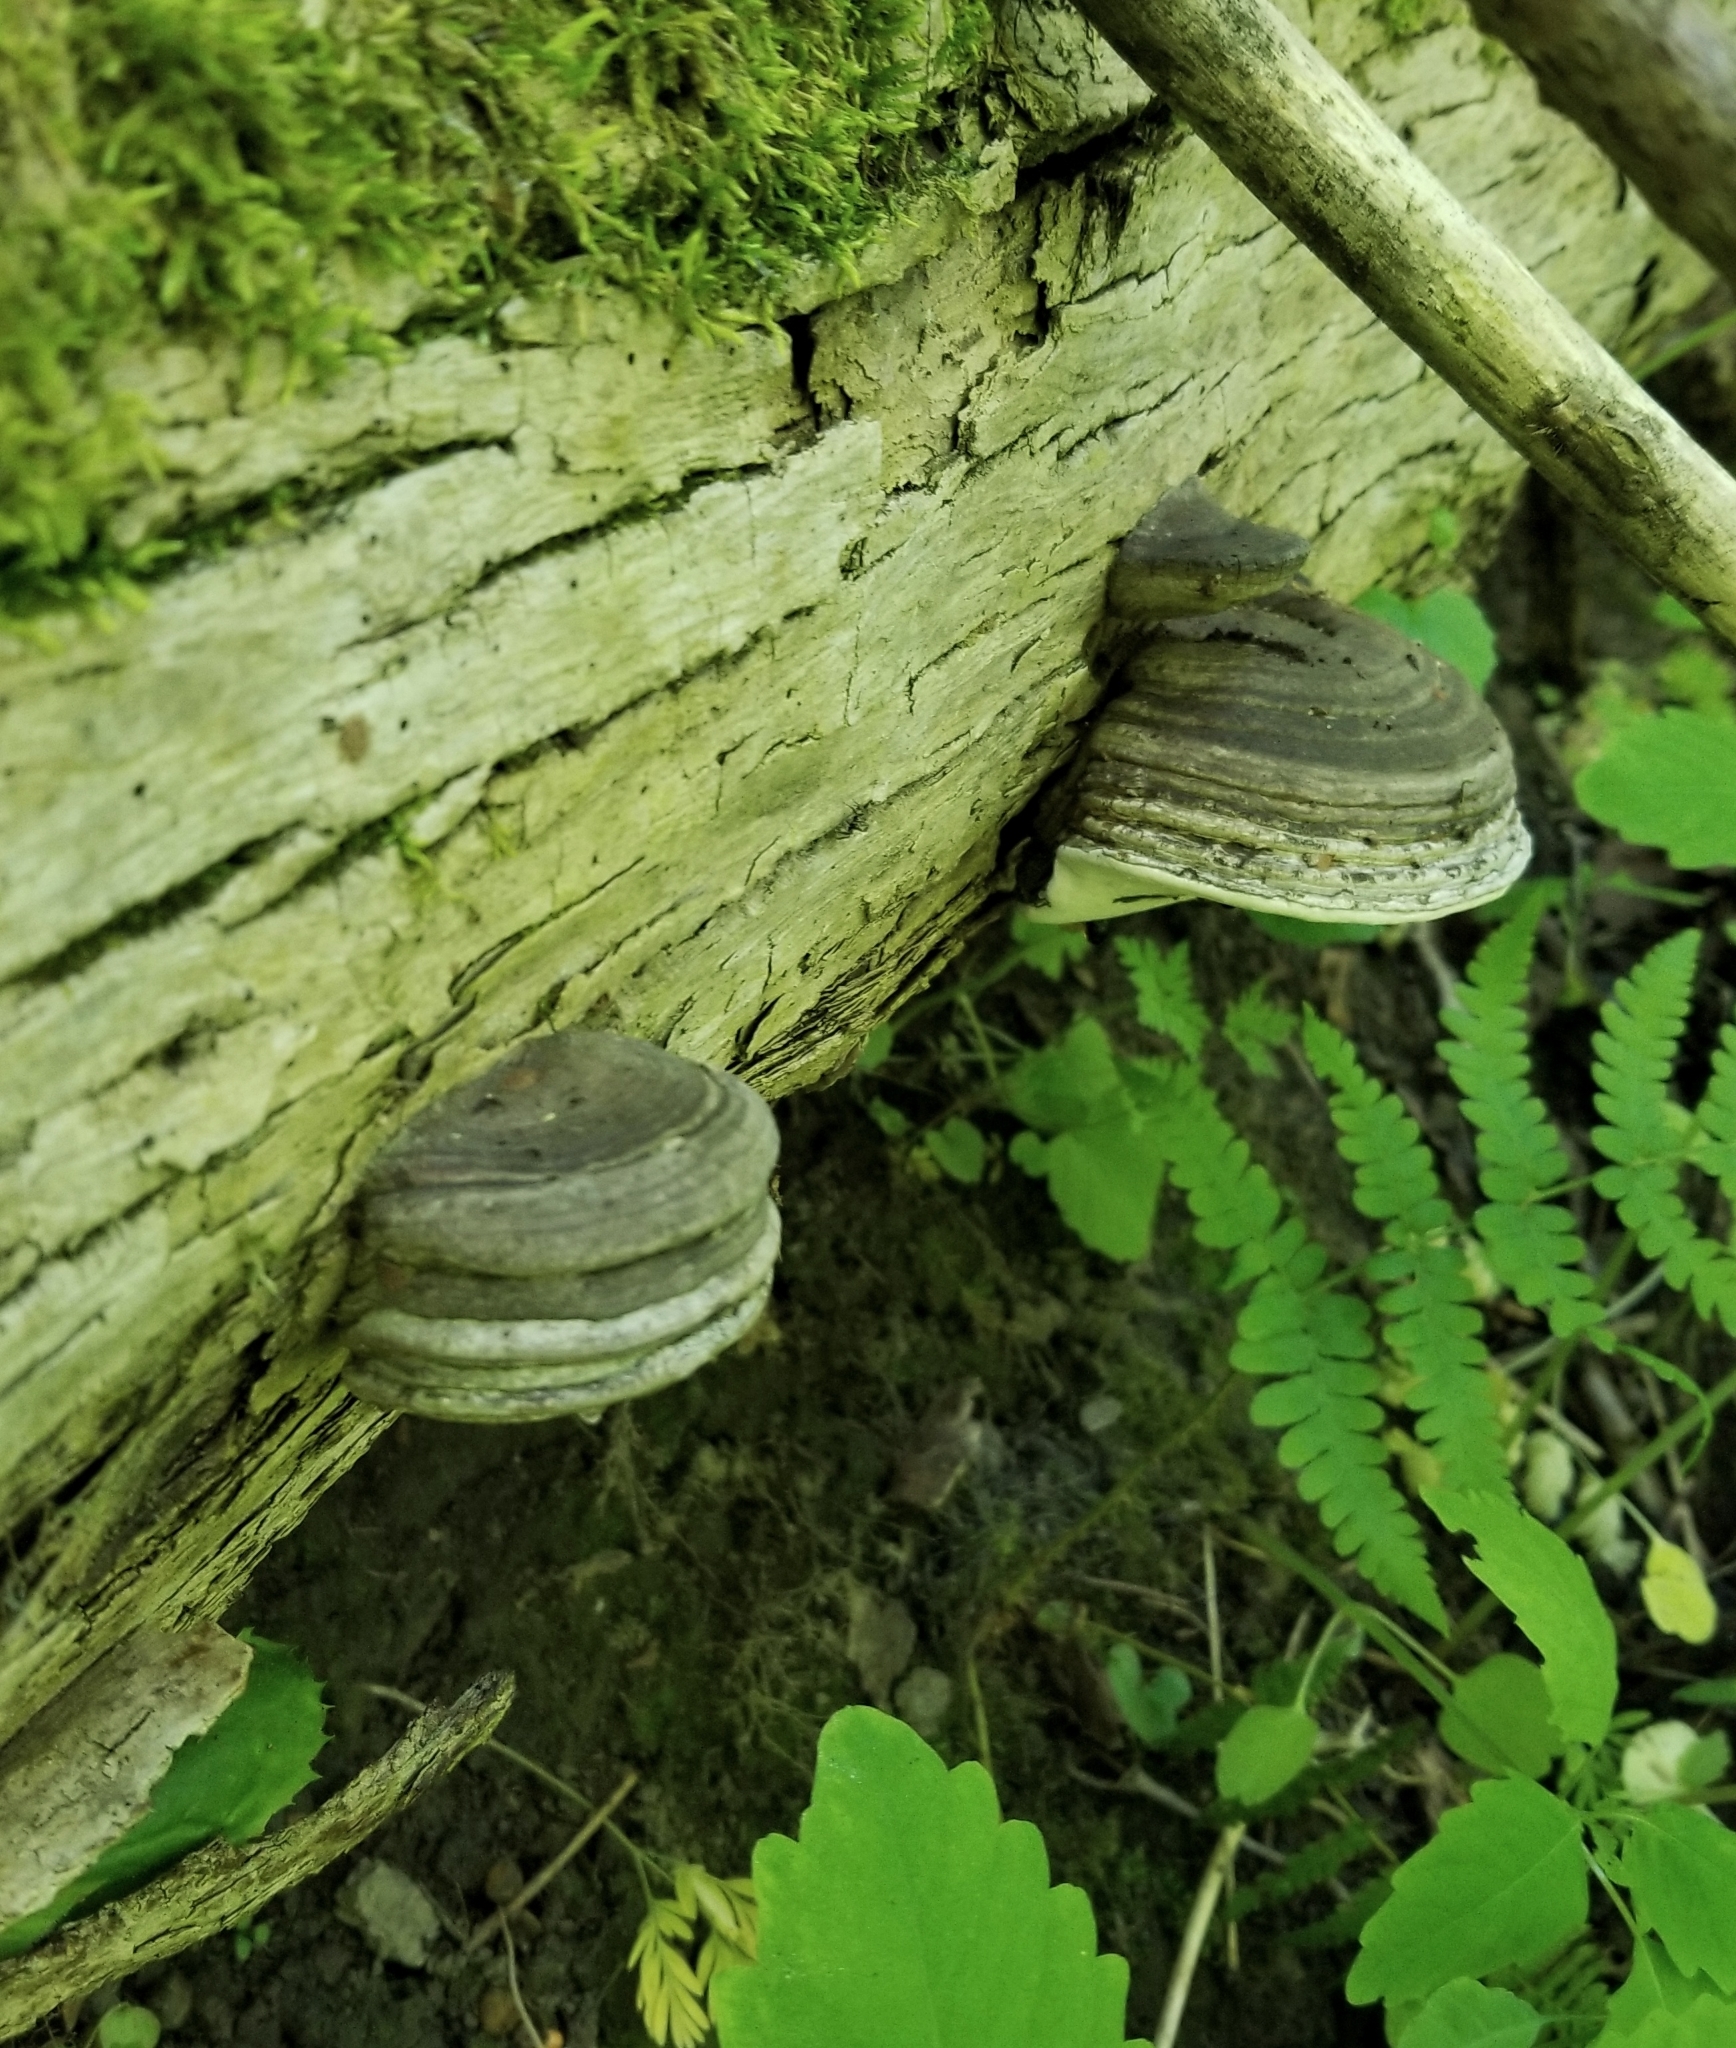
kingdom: Fungi
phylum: Basidiomycota
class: Agaricomycetes
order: Polyporales
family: Polyporaceae
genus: Fomes
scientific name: Fomes fomentarius
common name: Hoof fungus
